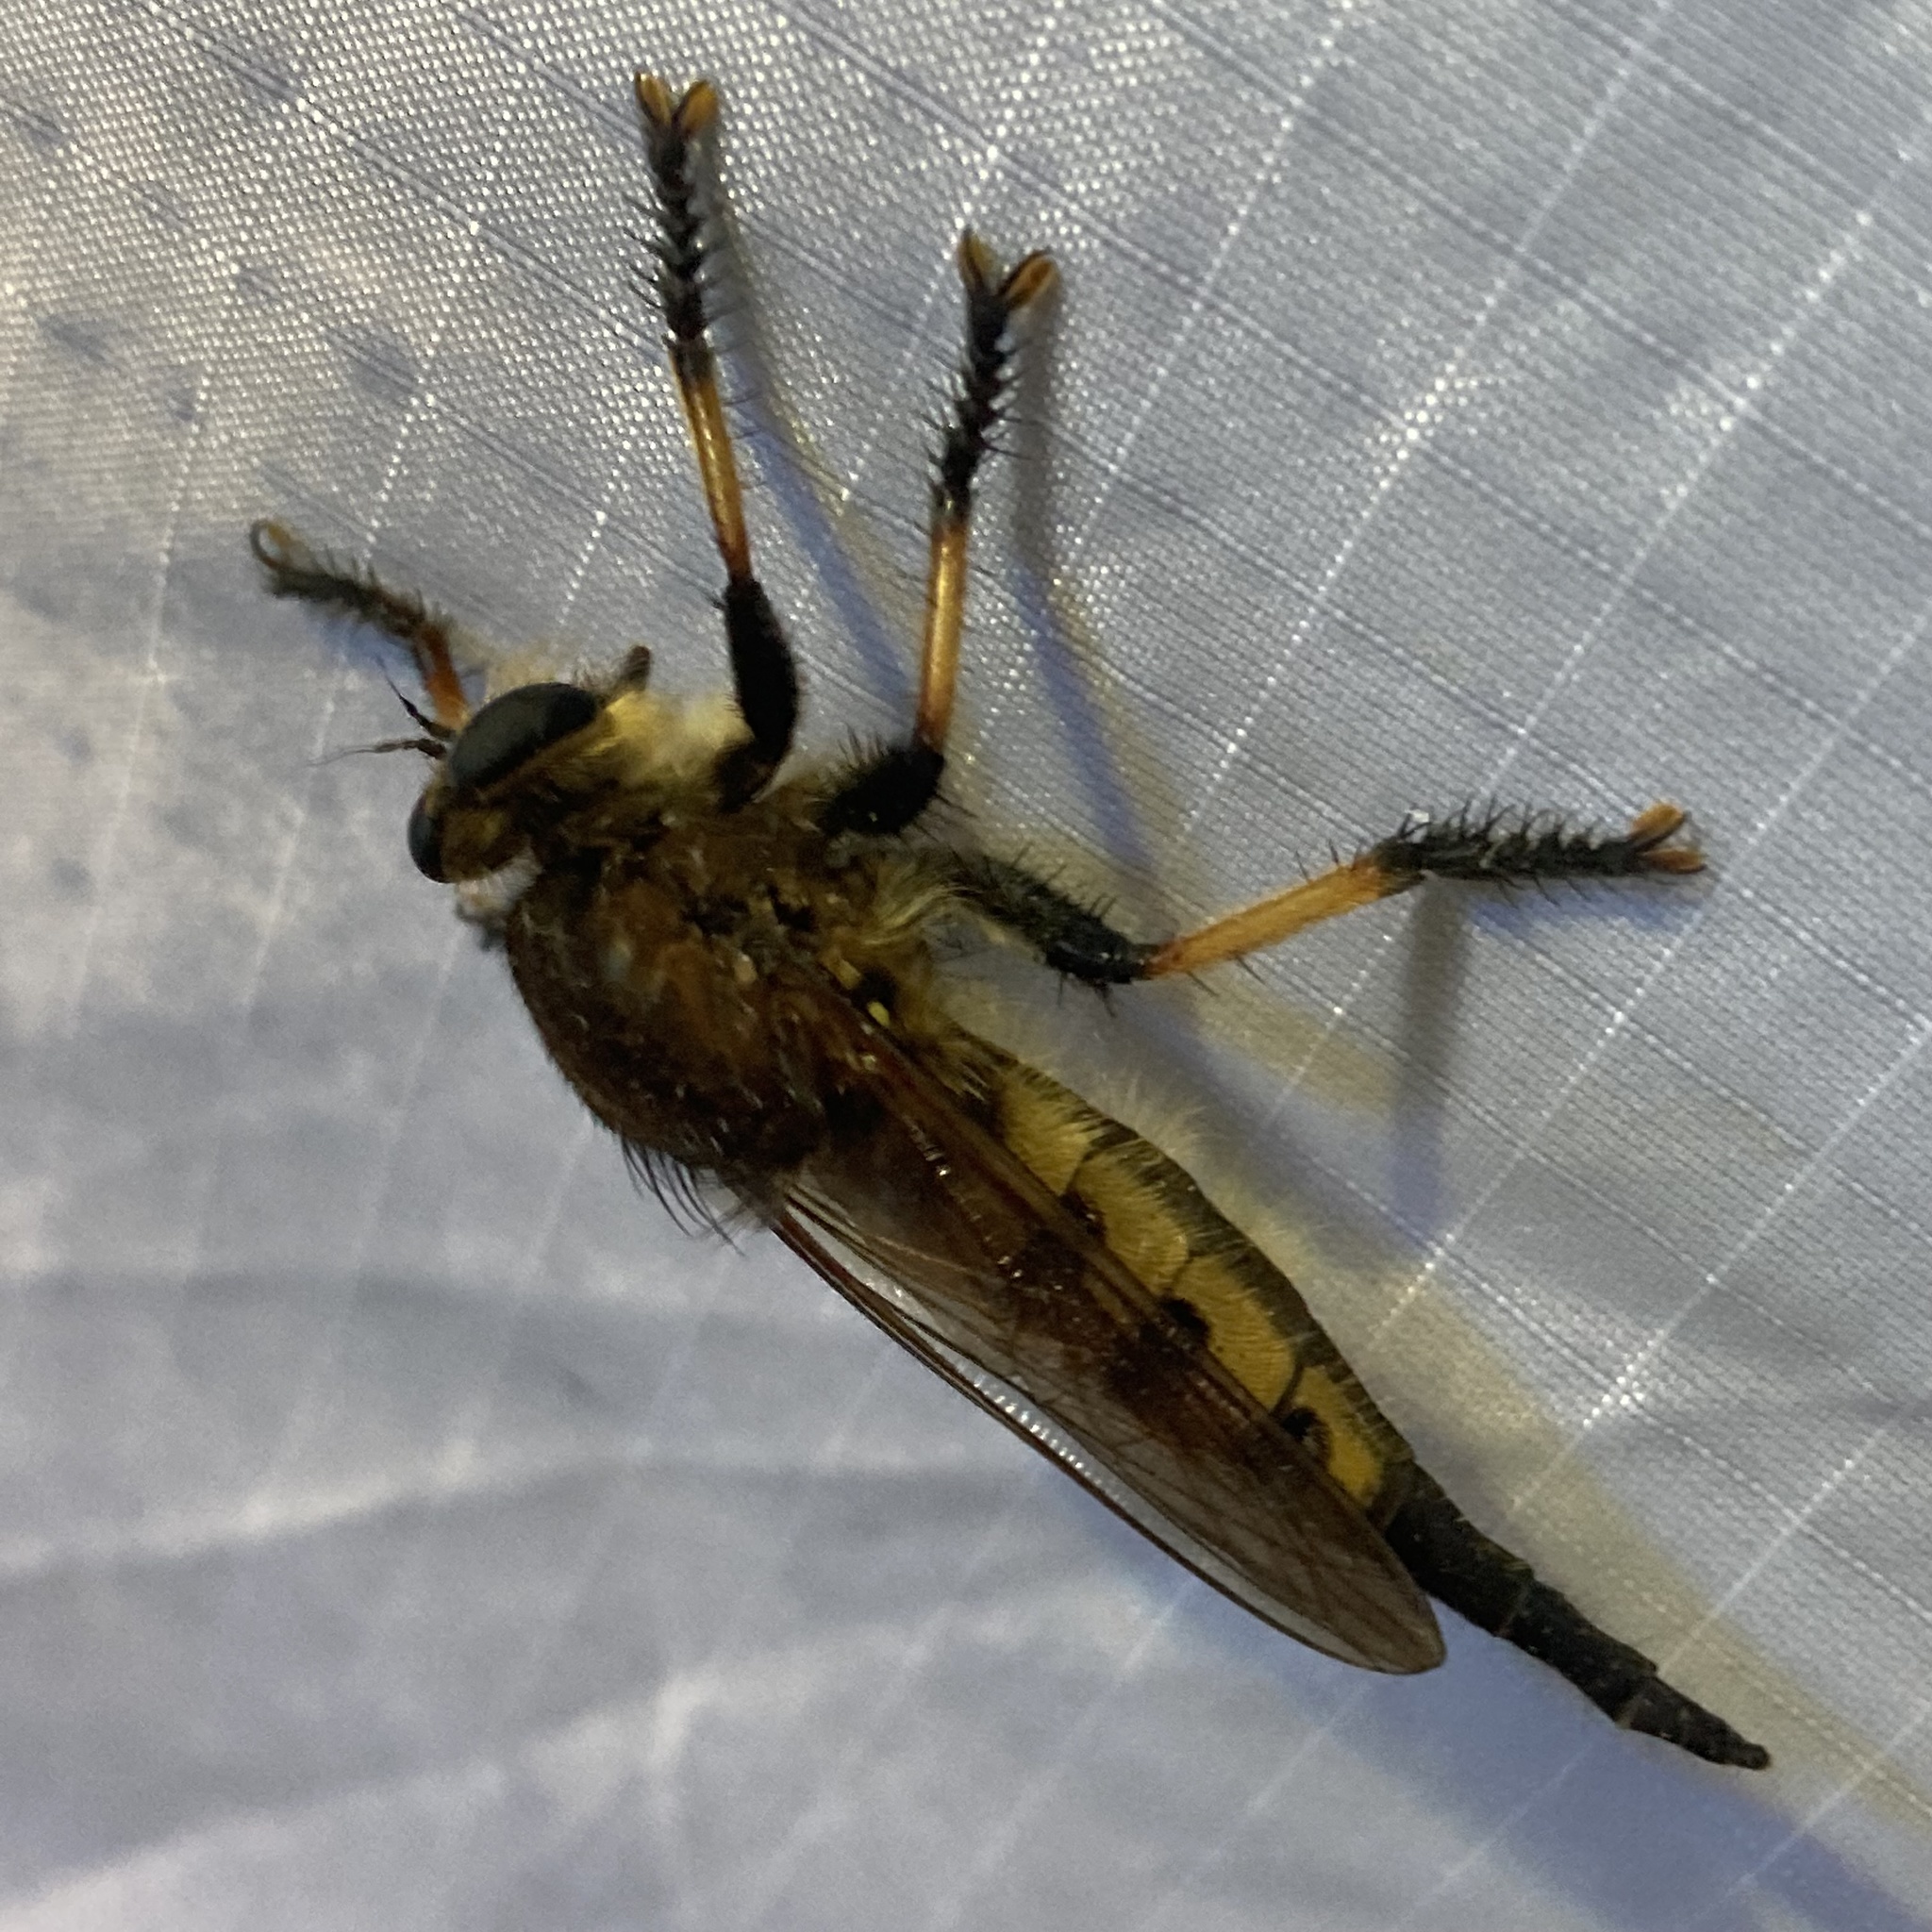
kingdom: Animalia
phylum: Arthropoda
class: Insecta
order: Diptera
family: Asilidae
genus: Promachus
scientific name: Promachus rufipes
